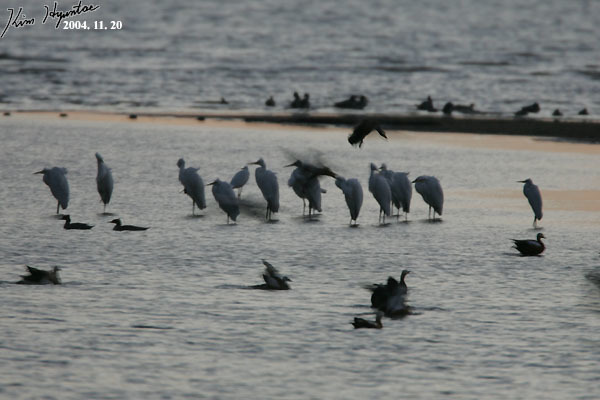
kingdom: Animalia
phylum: Chordata
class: Aves
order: Pelecaniformes
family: Ardeidae
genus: Ardea
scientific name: Ardea alba
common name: Great egret
